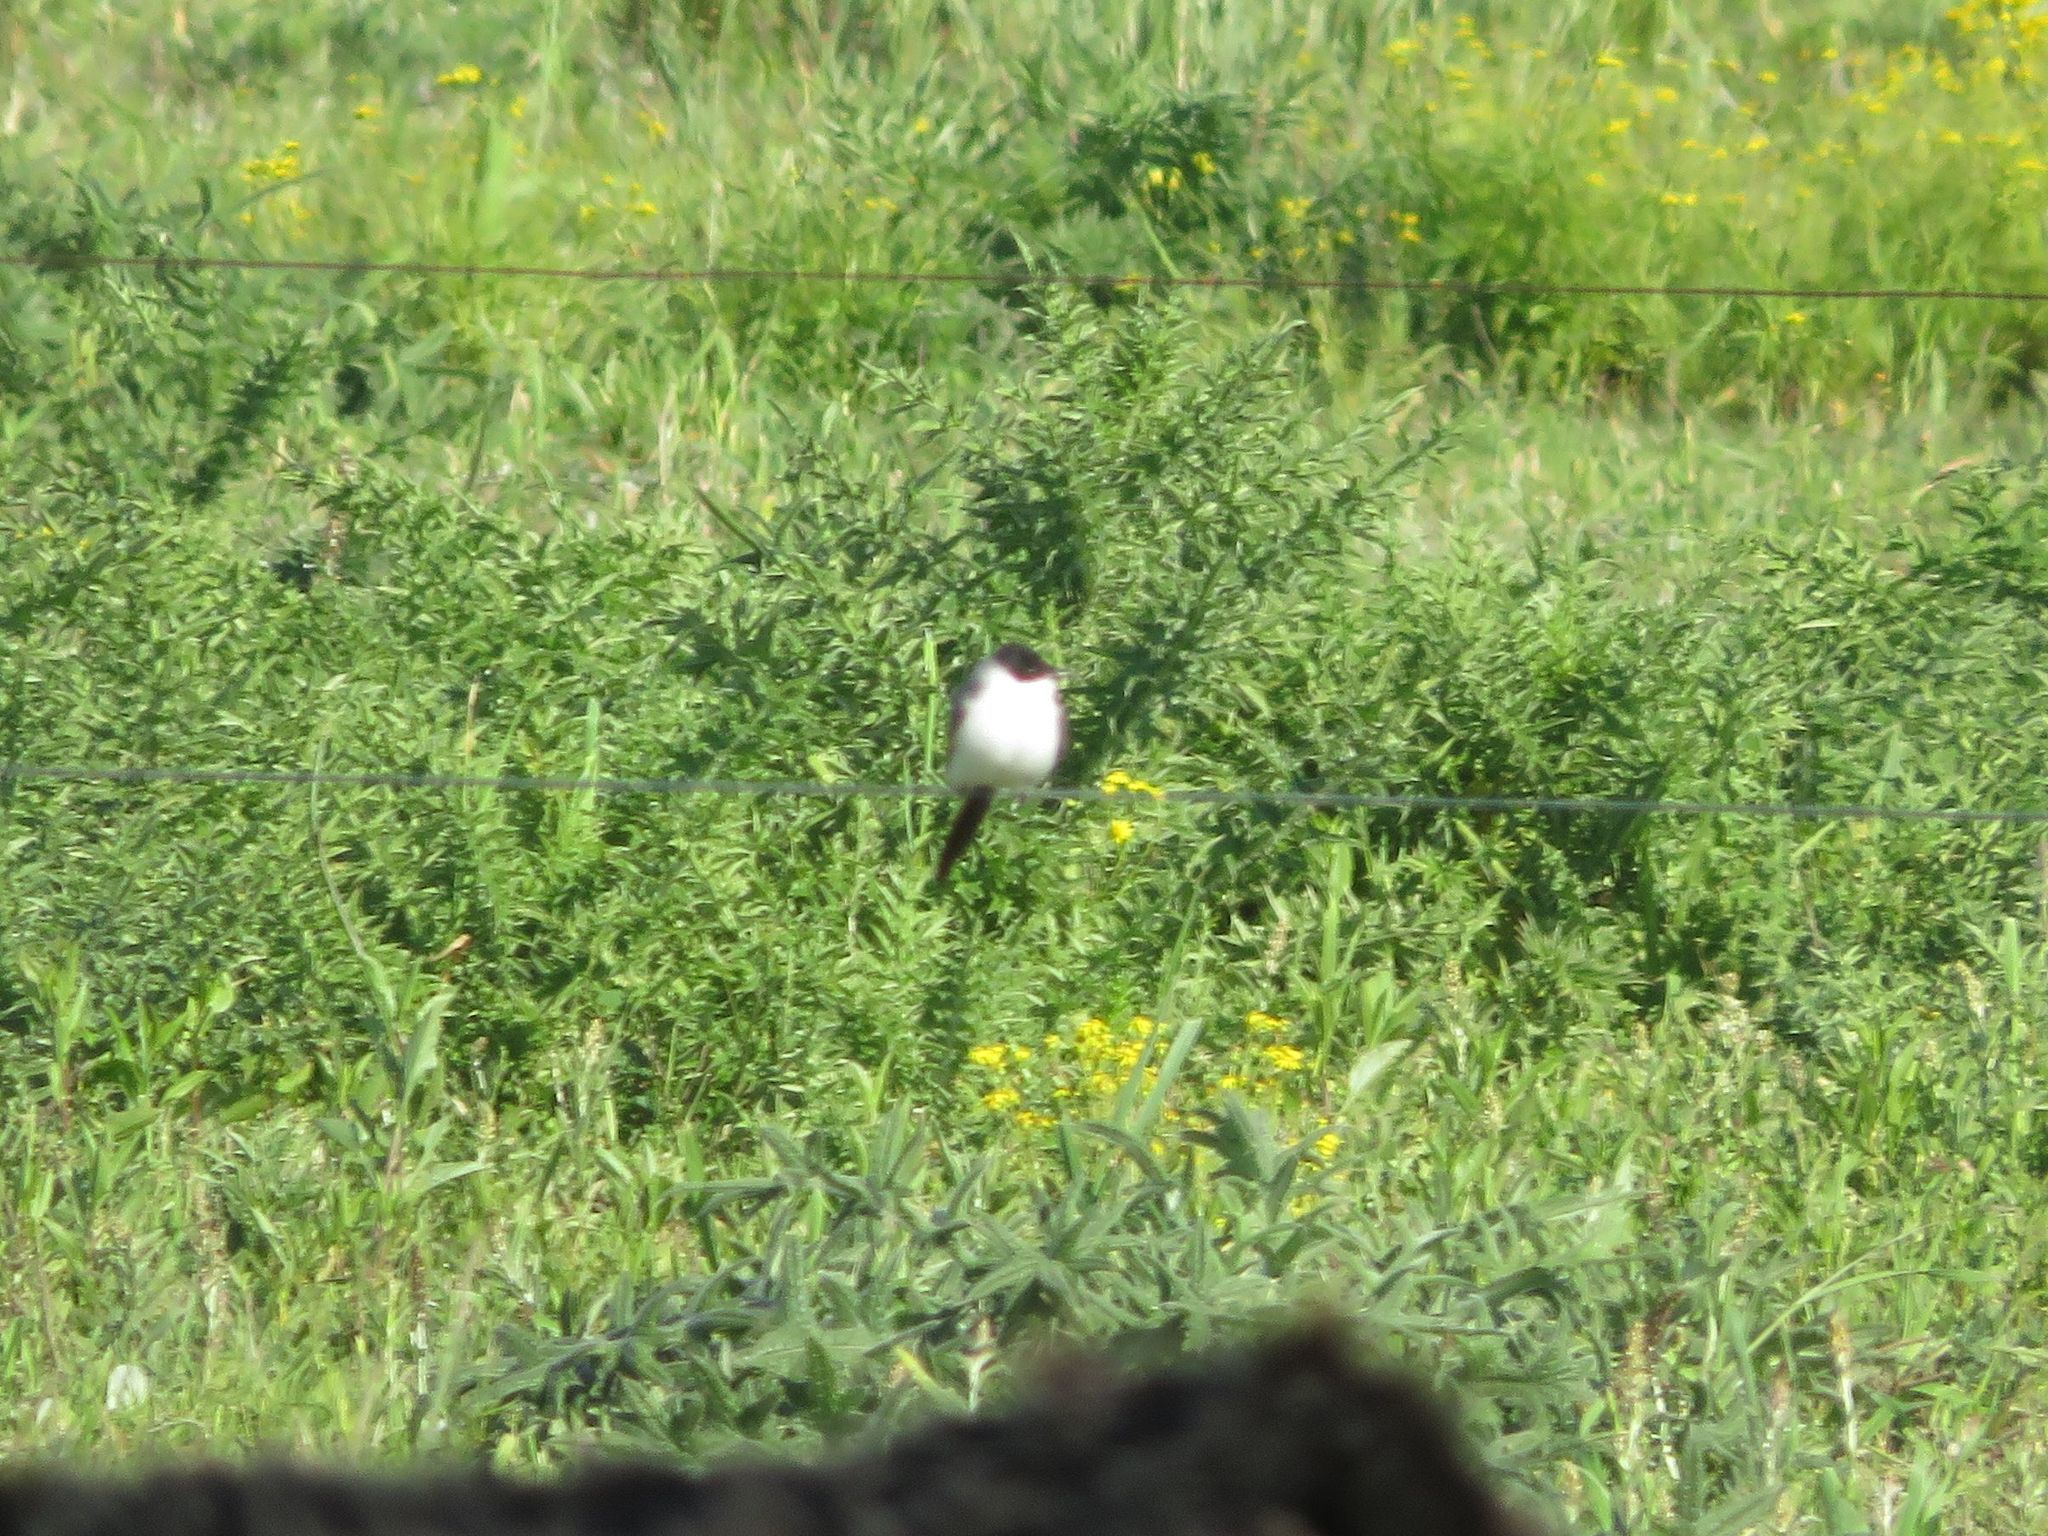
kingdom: Animalia
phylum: Chordata
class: Aves
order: Passeriformes
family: Tyrannidae
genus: Tyrannus
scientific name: Tyrannus savana
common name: Fork-tailed flycatcher
